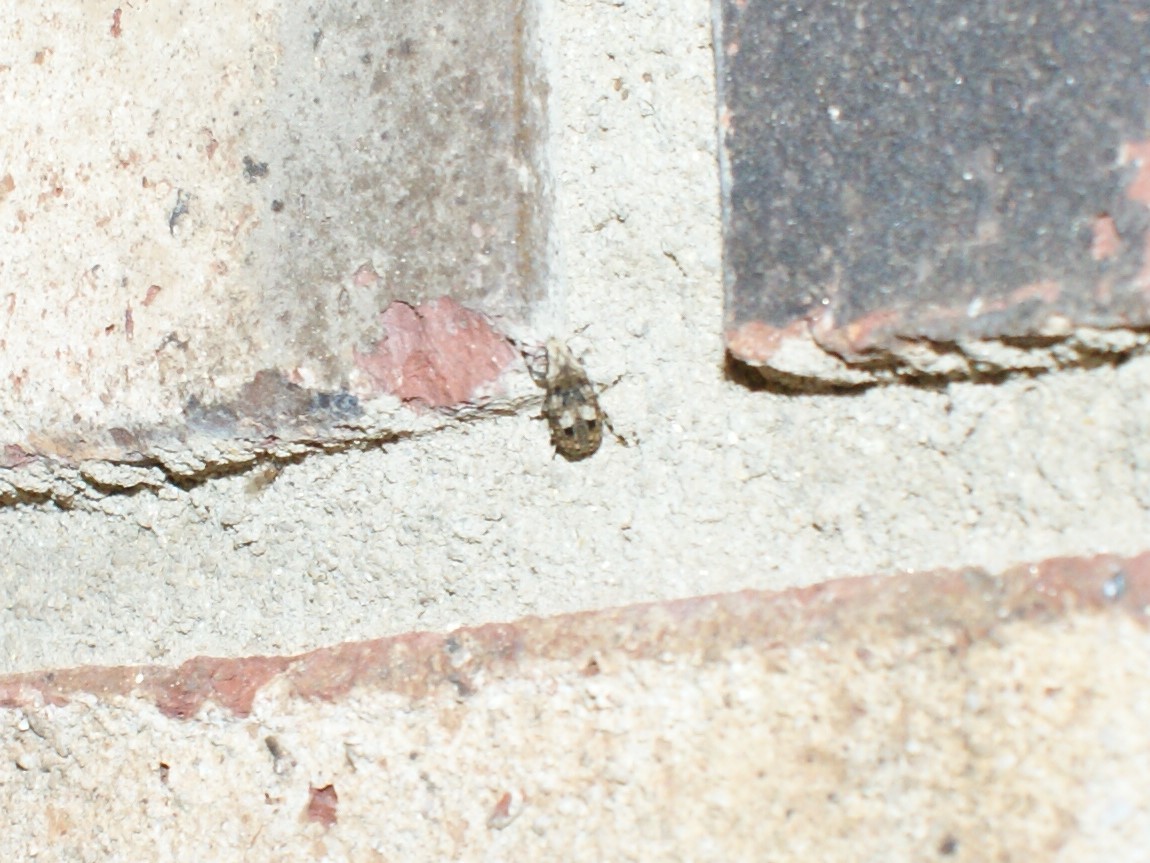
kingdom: Animalia
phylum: Arthropoda
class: Insecta
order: Coleoptera
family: Anthribidae
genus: Euparius
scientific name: Euparius marmoreus
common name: Marbled fungus weevil
